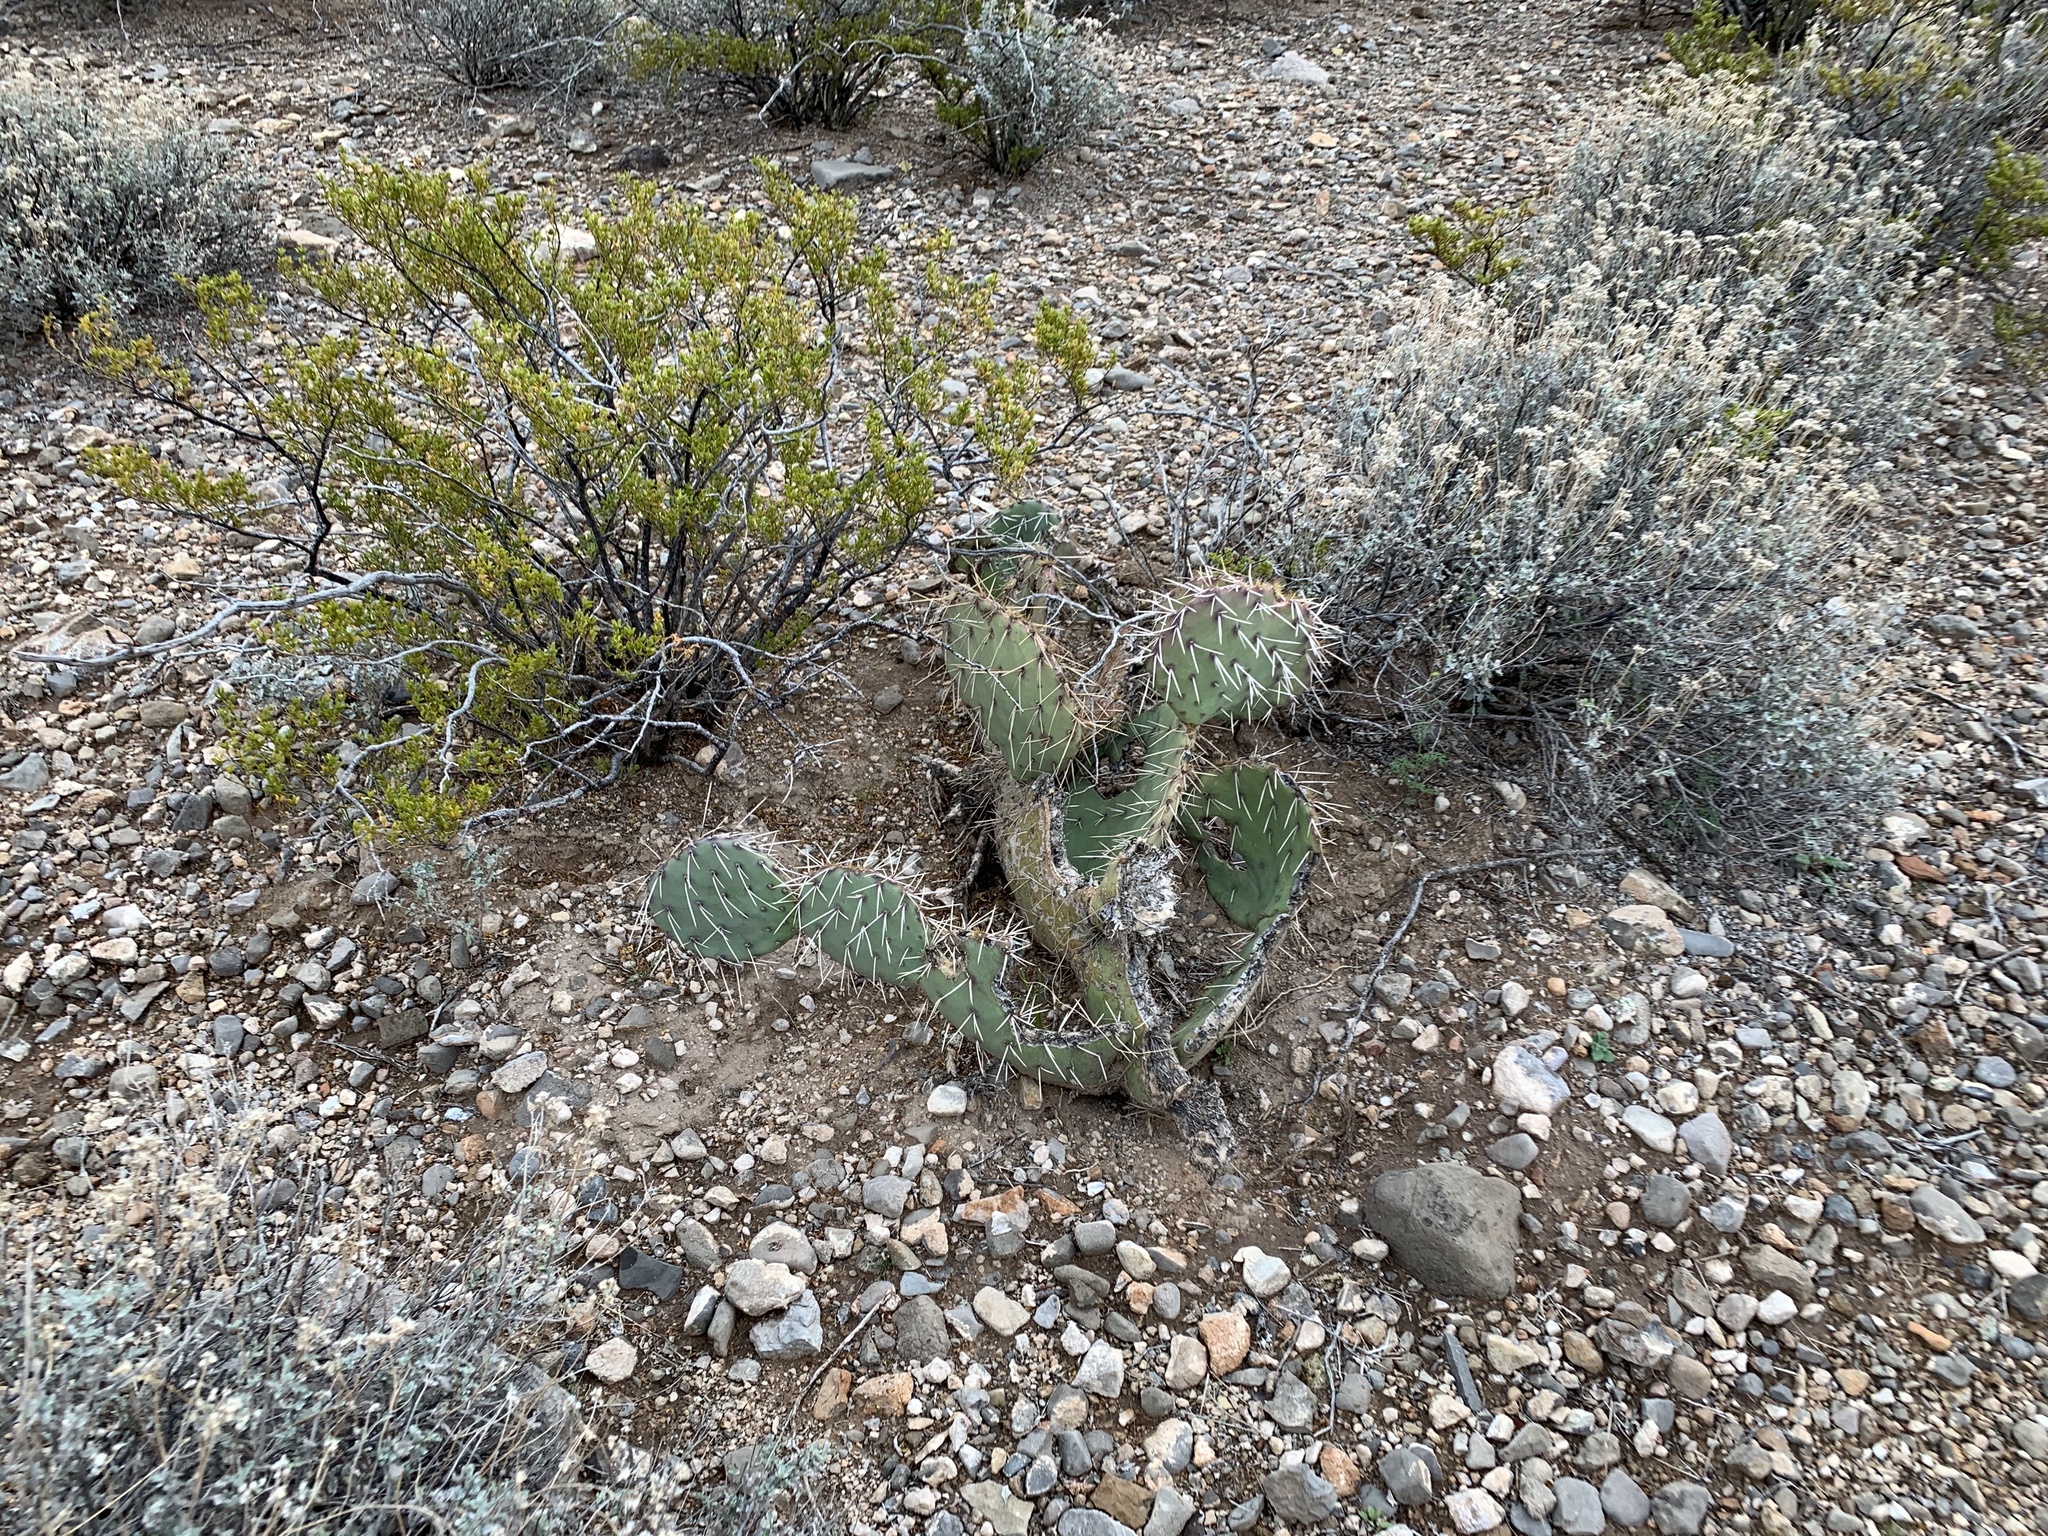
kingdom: Plantae
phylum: Tracheophyta
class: Magnoliopsida
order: Caryophyllales
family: Cactaceae
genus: Opuntia
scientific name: Opuntia engelmannii
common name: Cactus-apple
